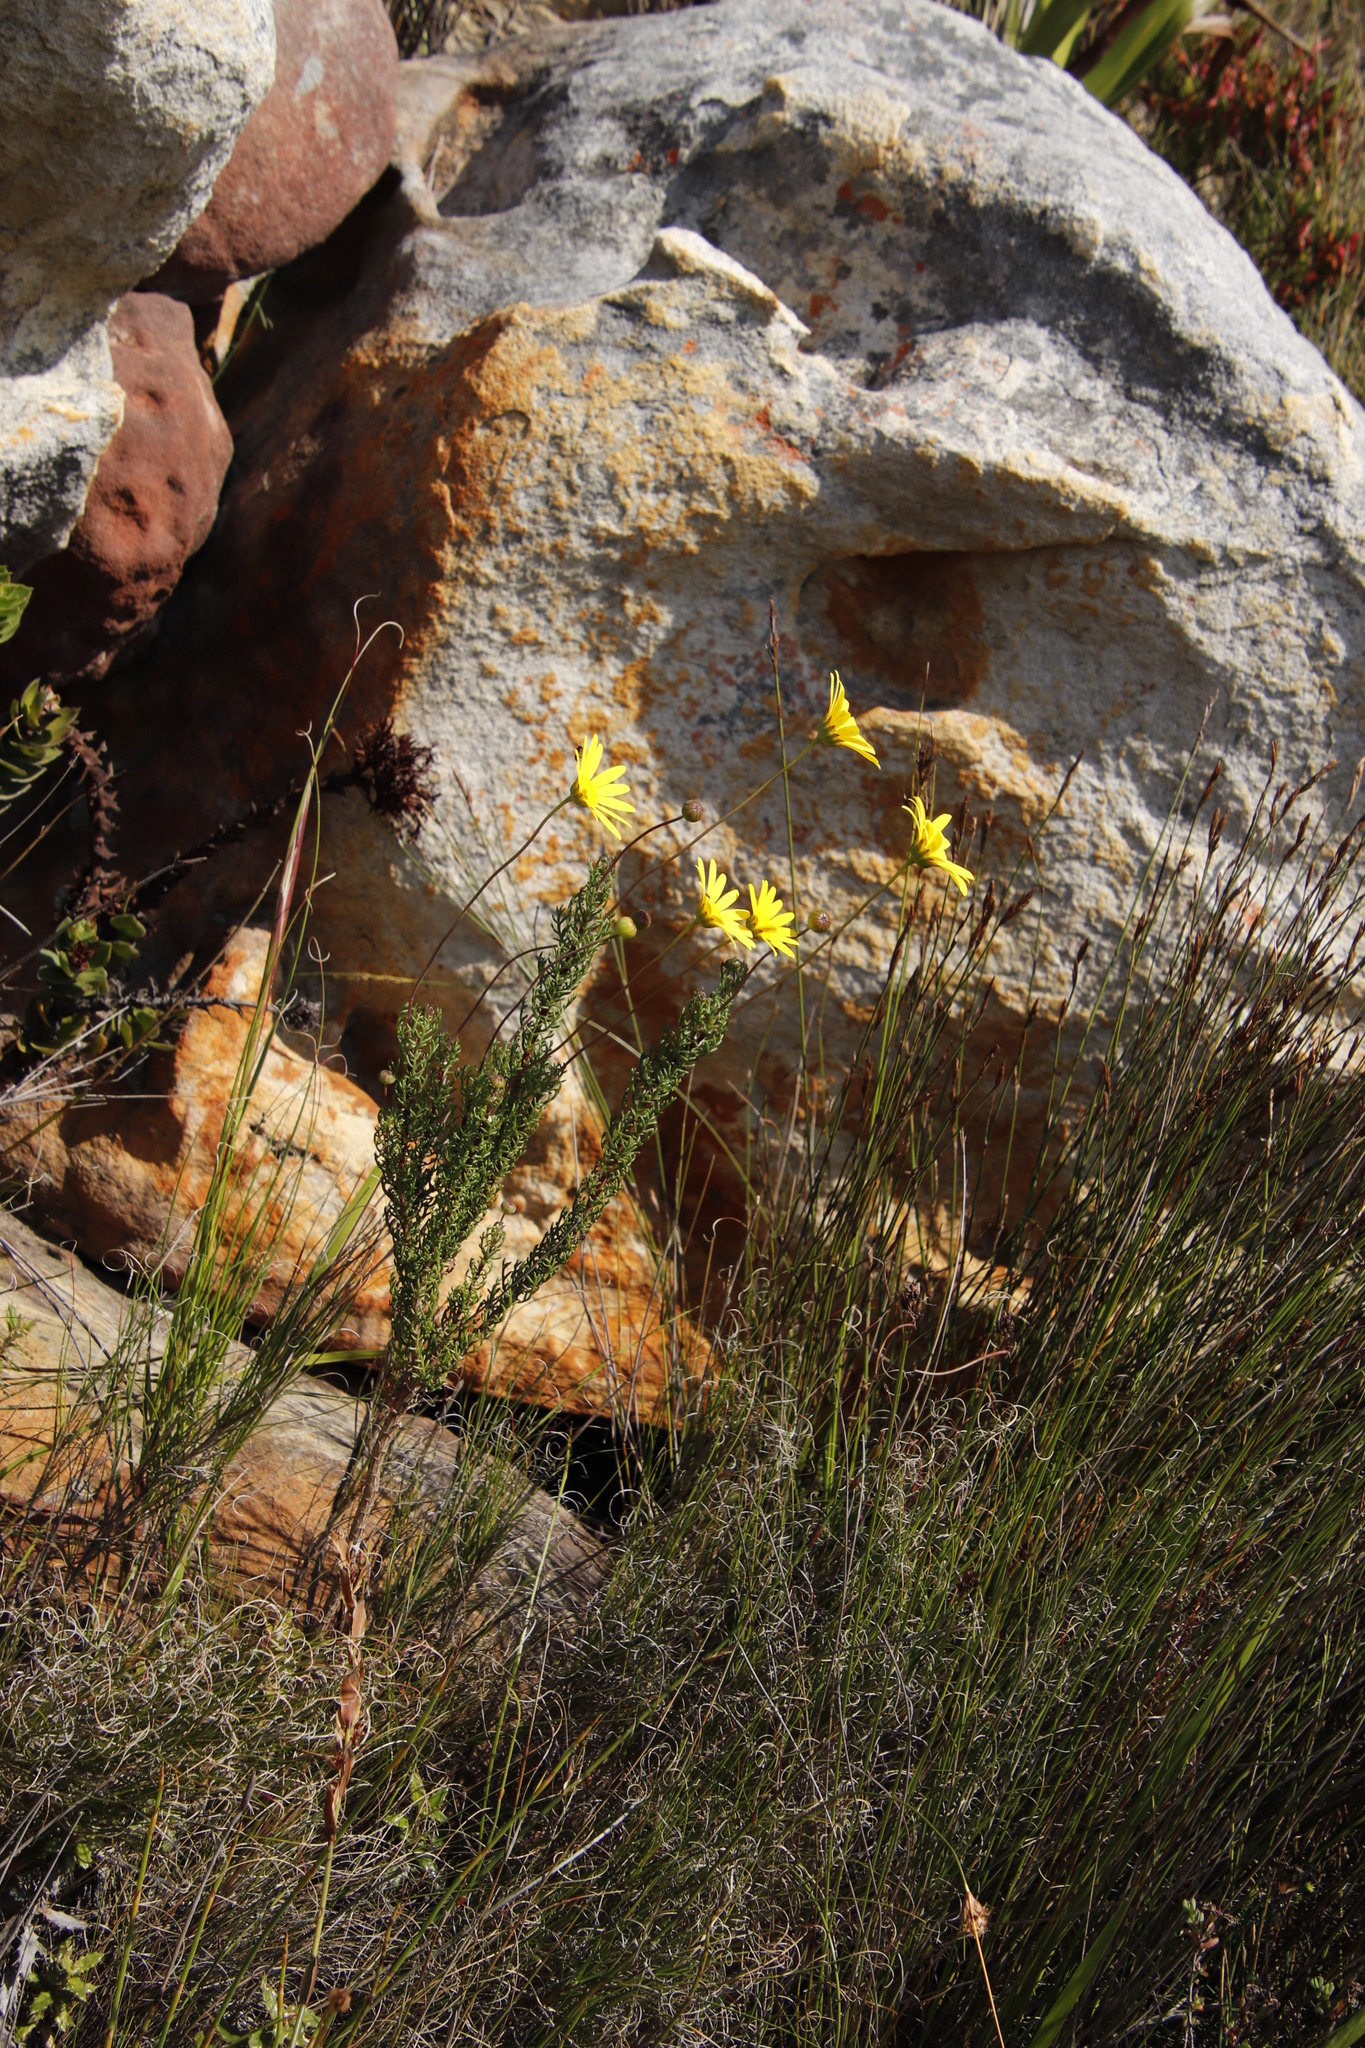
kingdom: Plantae
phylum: Tracheophyta
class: Magnoliopsida
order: Asterales
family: Asteraceae
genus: Euryops
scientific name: Euryops abrotanifolius
